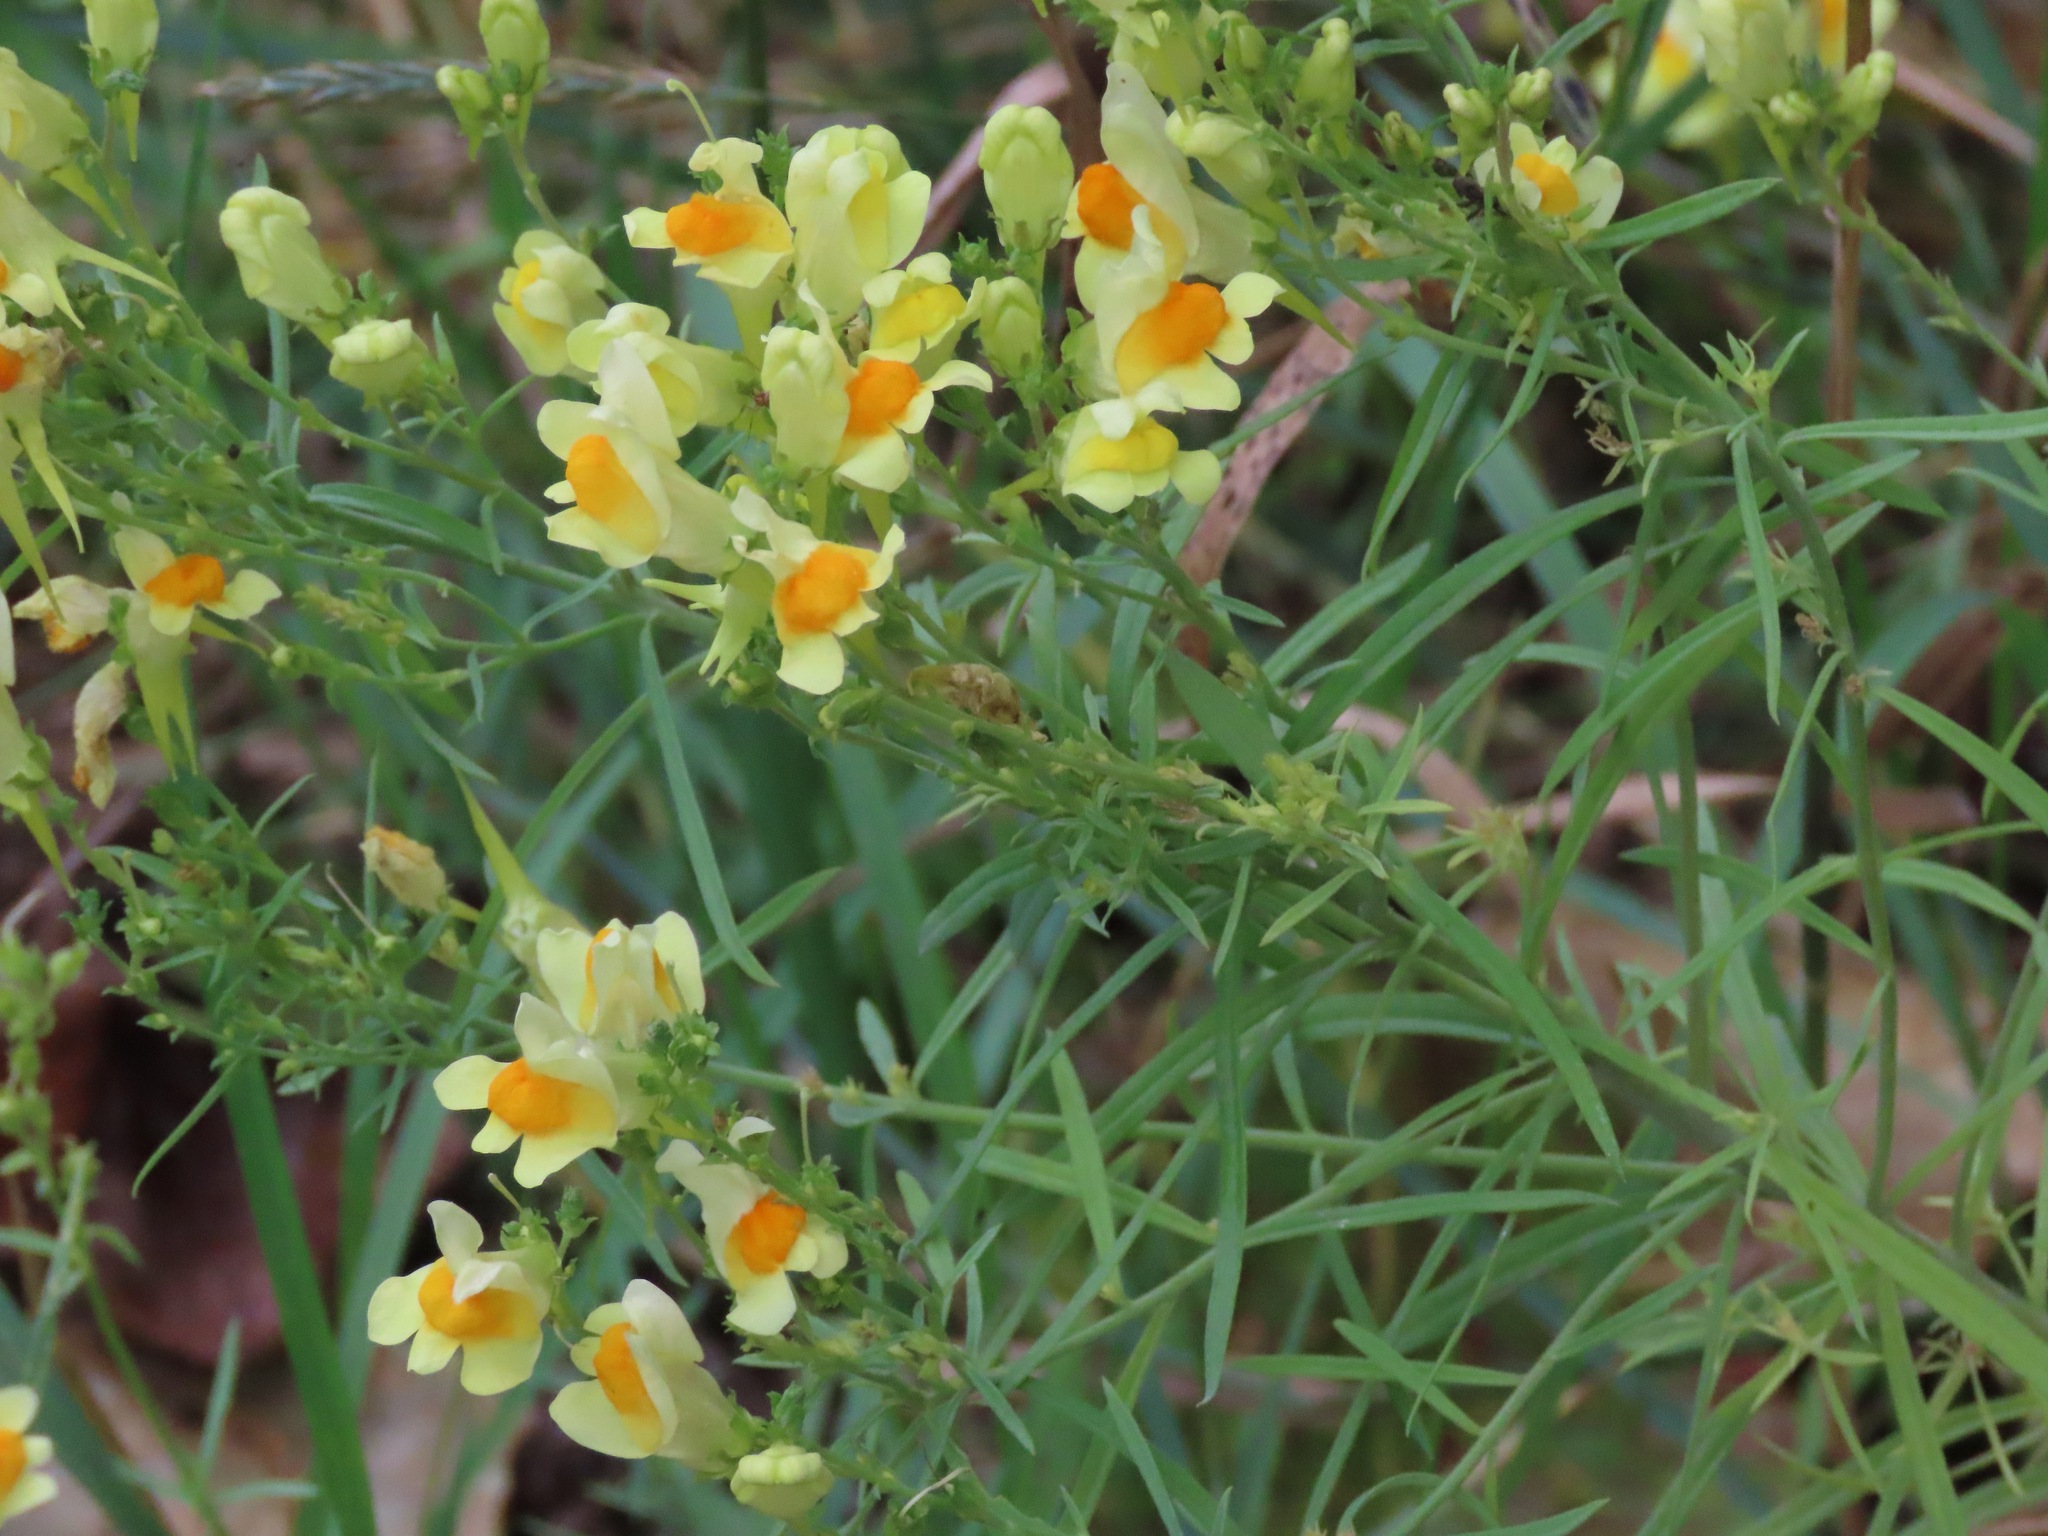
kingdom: Plantae
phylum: Tracheophyta
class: Magnoliopsida
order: Lamiales
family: Plantaginaceae
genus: Linaria
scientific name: Linaria vulgaris
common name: Butter and eggs
